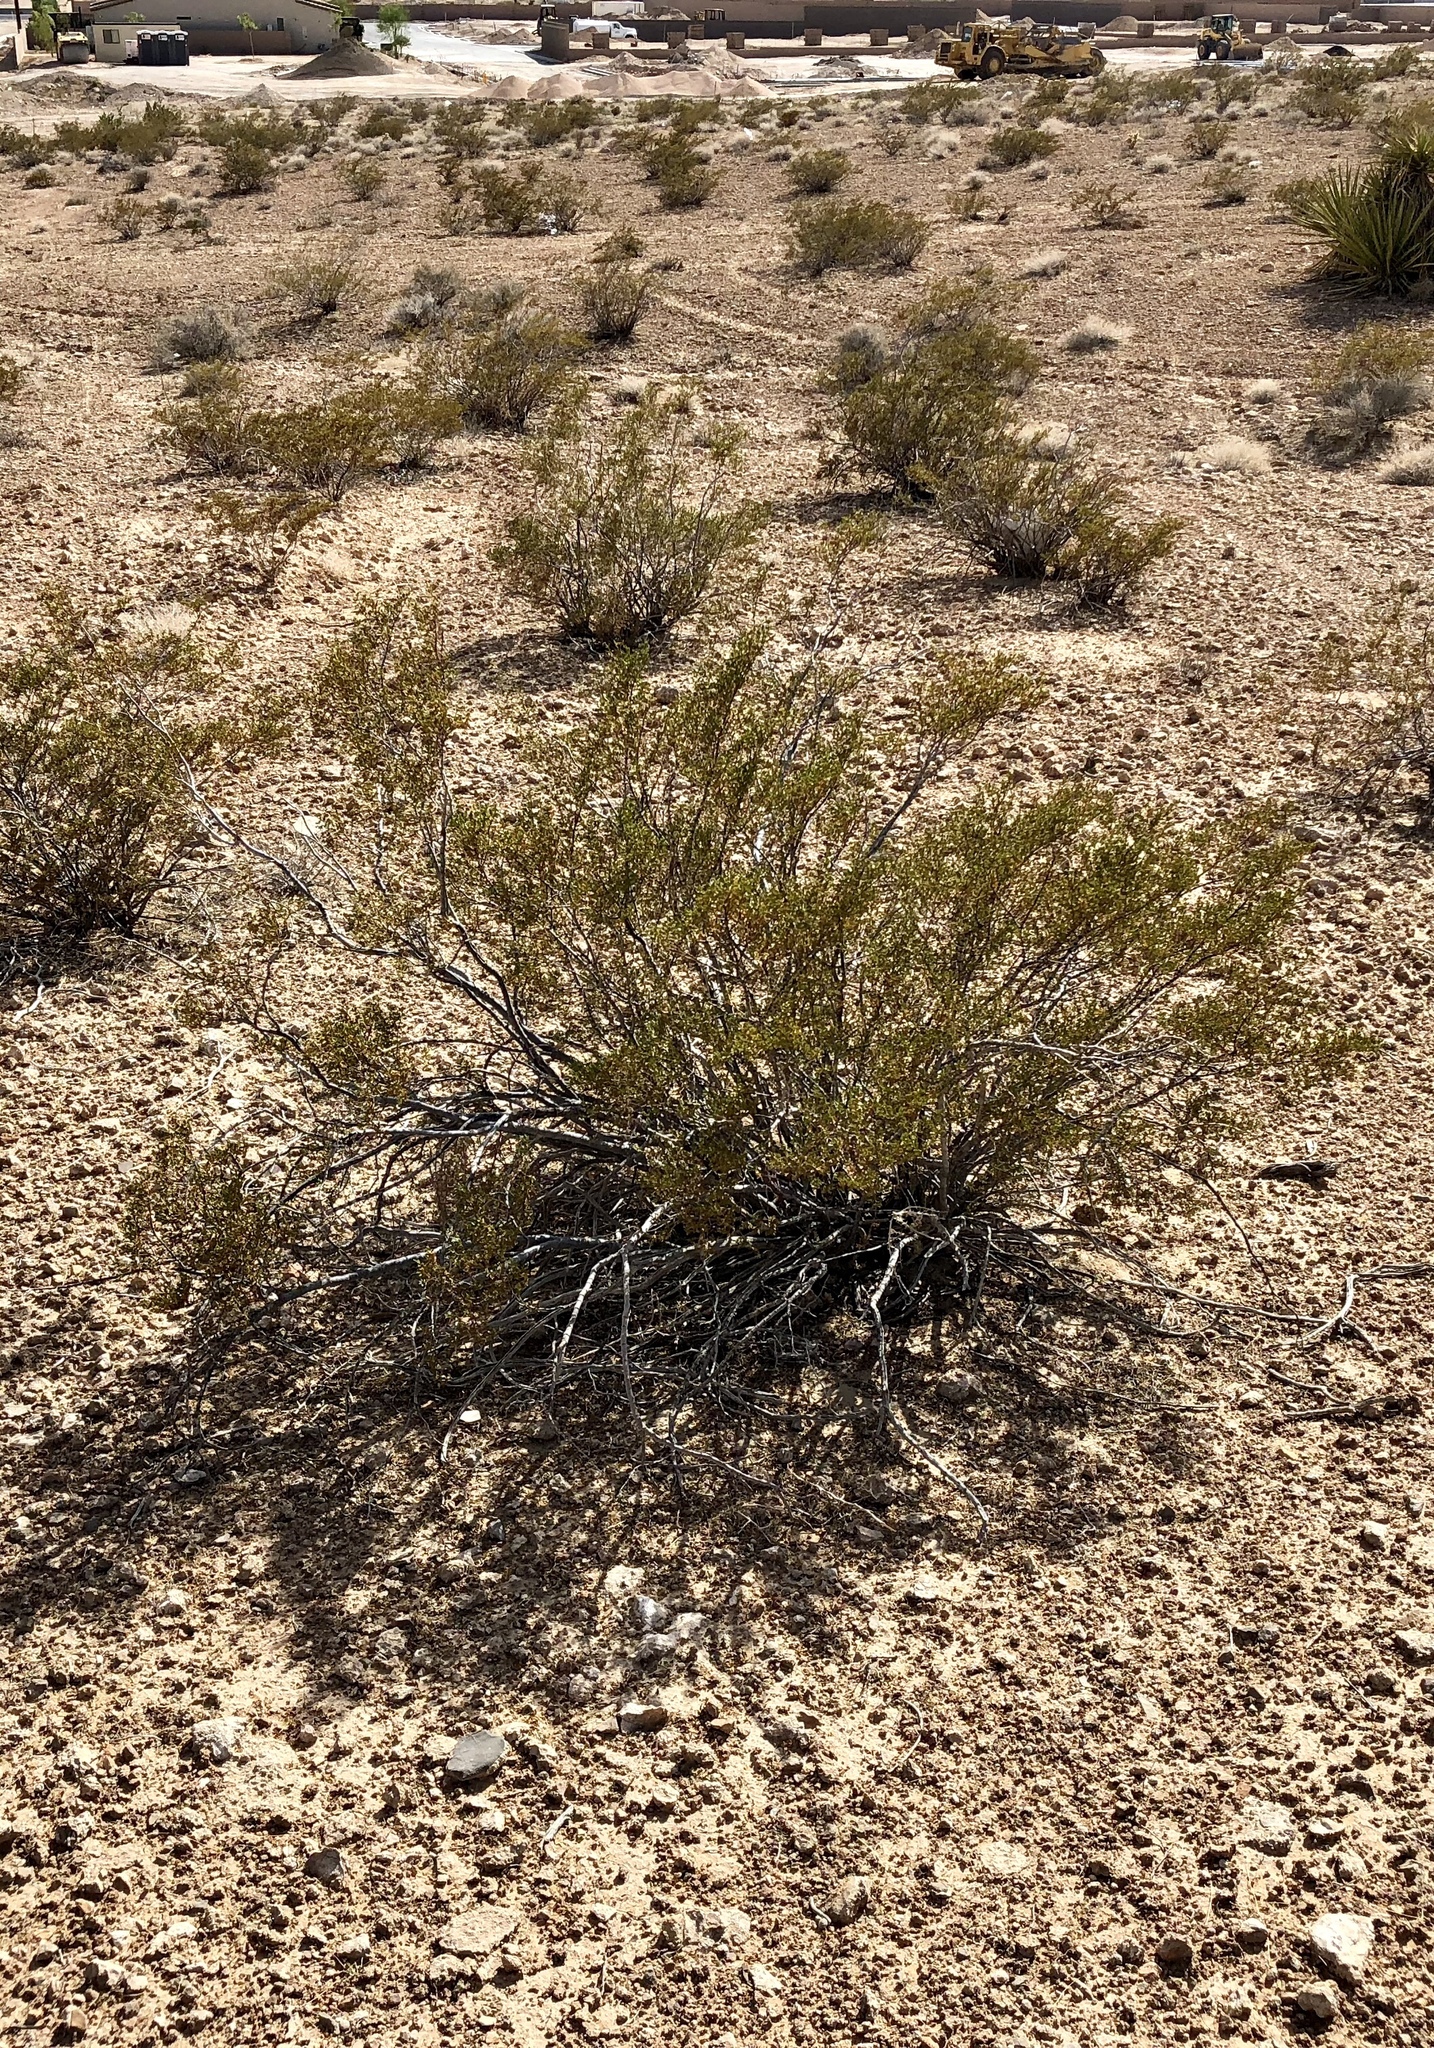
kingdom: Plantae
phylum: Tracheophyta
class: Magnoliopsida
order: Zygophyllales
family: Zygophyllaceae
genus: Larrea
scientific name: Larrea tridentata
